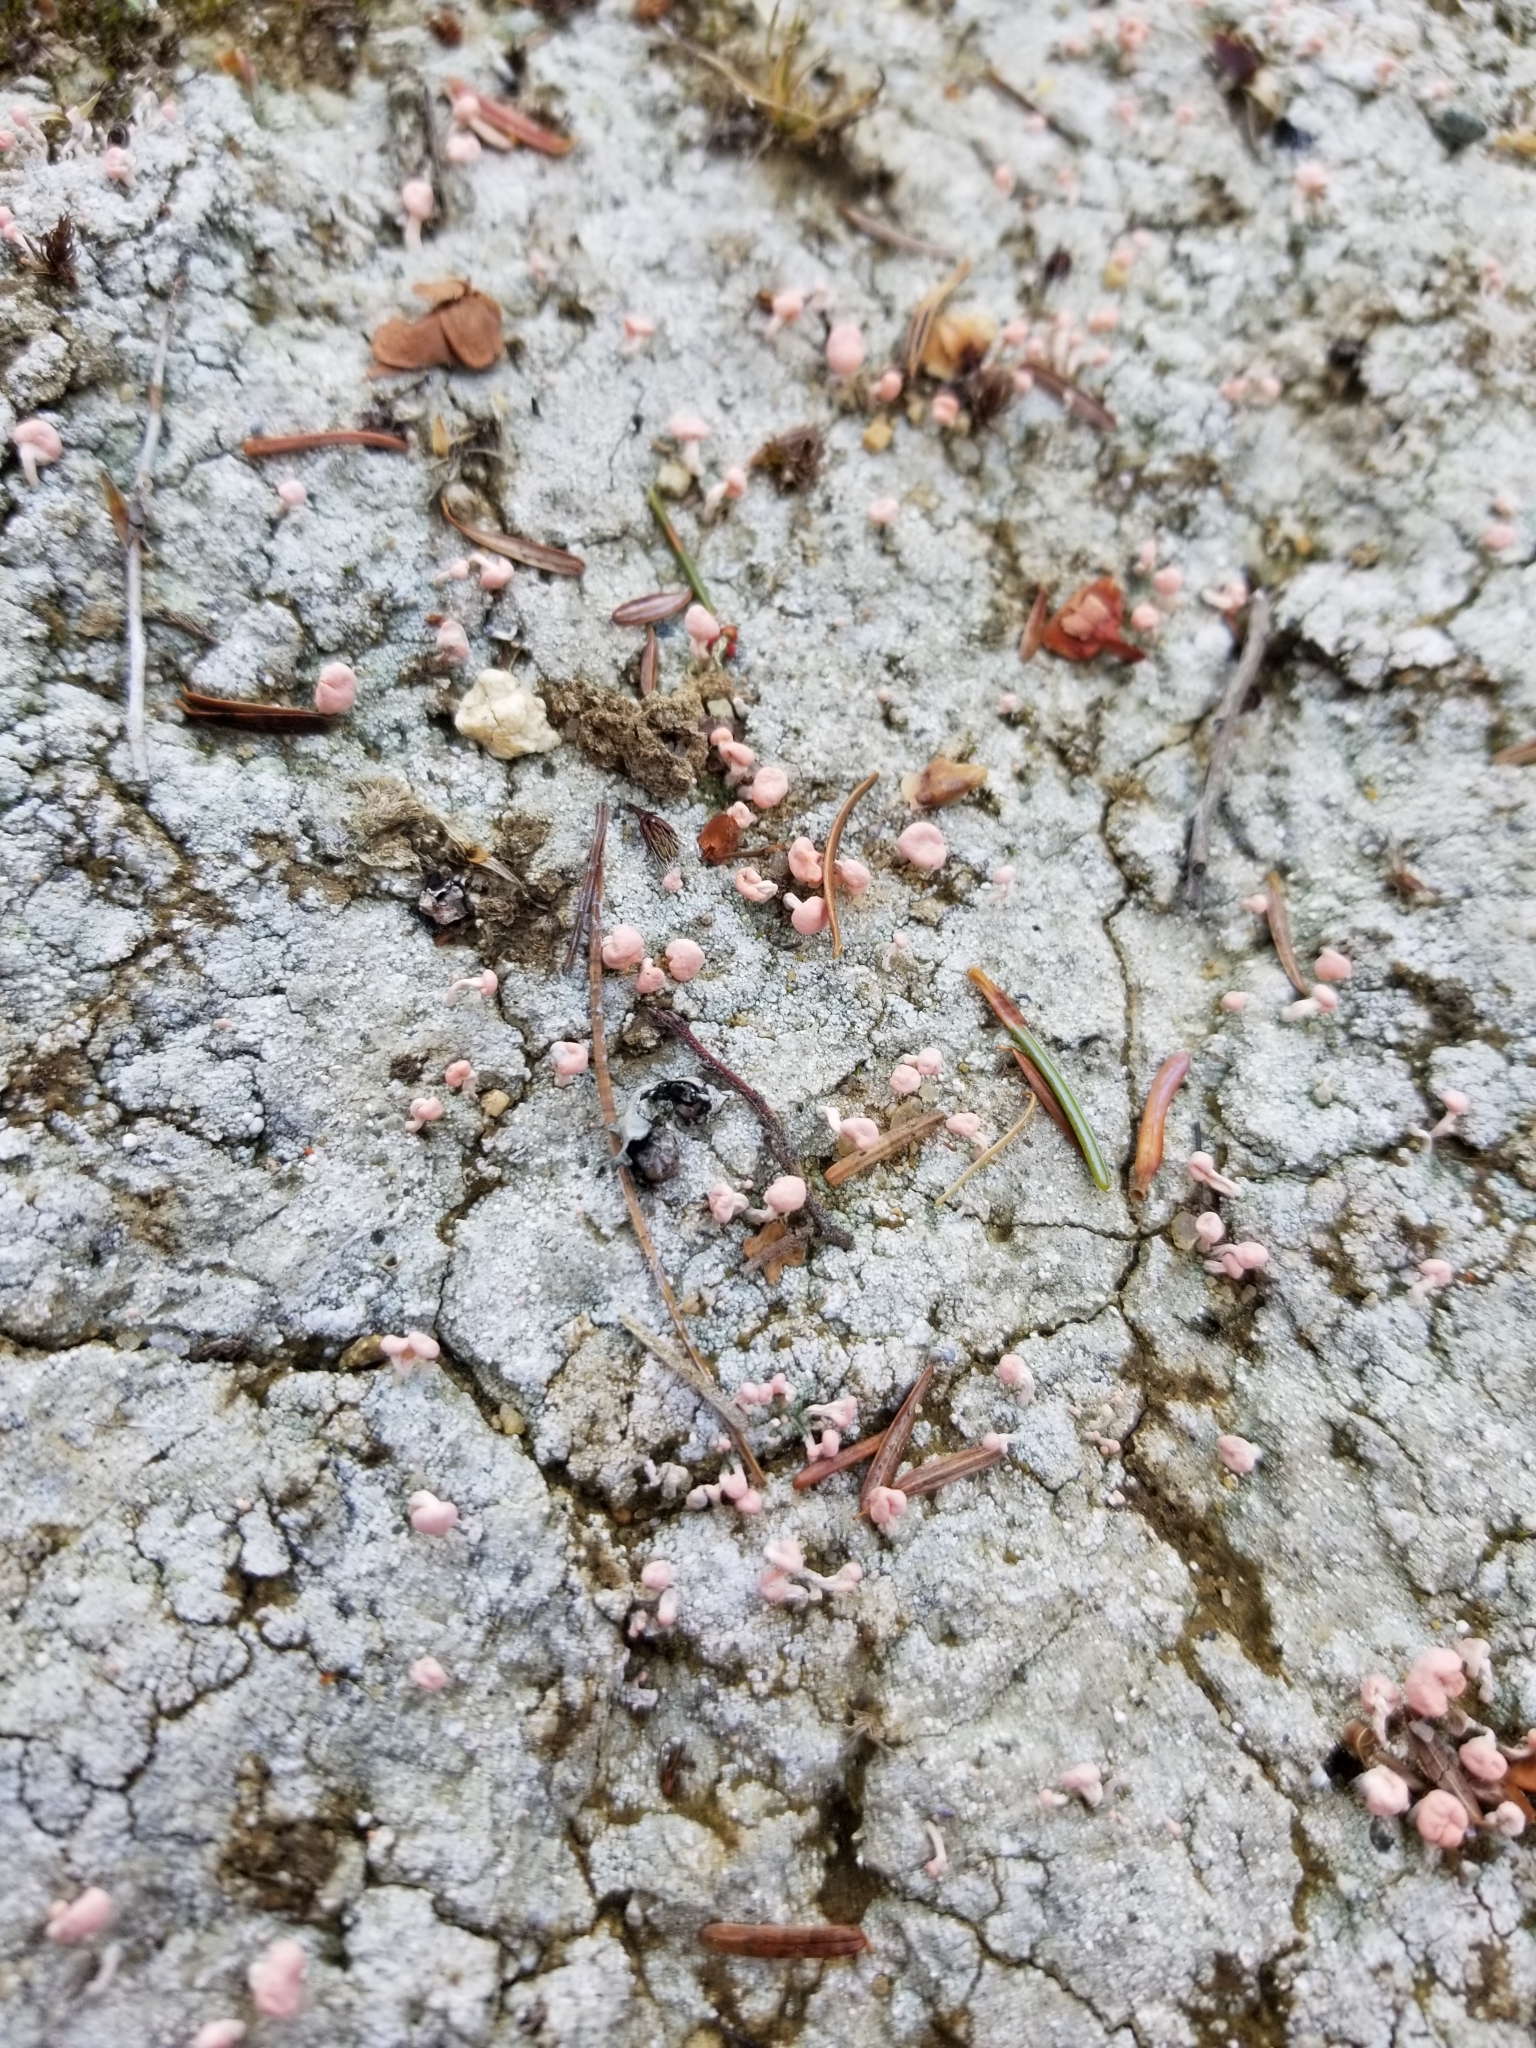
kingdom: Fungi
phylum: Ascomycota
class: Lecanoromycetes
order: Pertusariales
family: Icmadophilaceae
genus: Dibaeis
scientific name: Dibaeis baeomyces
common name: Pink earth lichen
